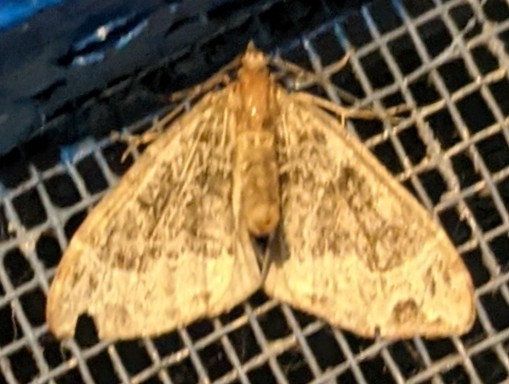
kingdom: Animalia
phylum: Arthropoda
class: Insecta
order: Lepidoptera
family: Geometridae
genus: Ecliptopera
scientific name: Ecliptopera silaceata
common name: Small phoenix
